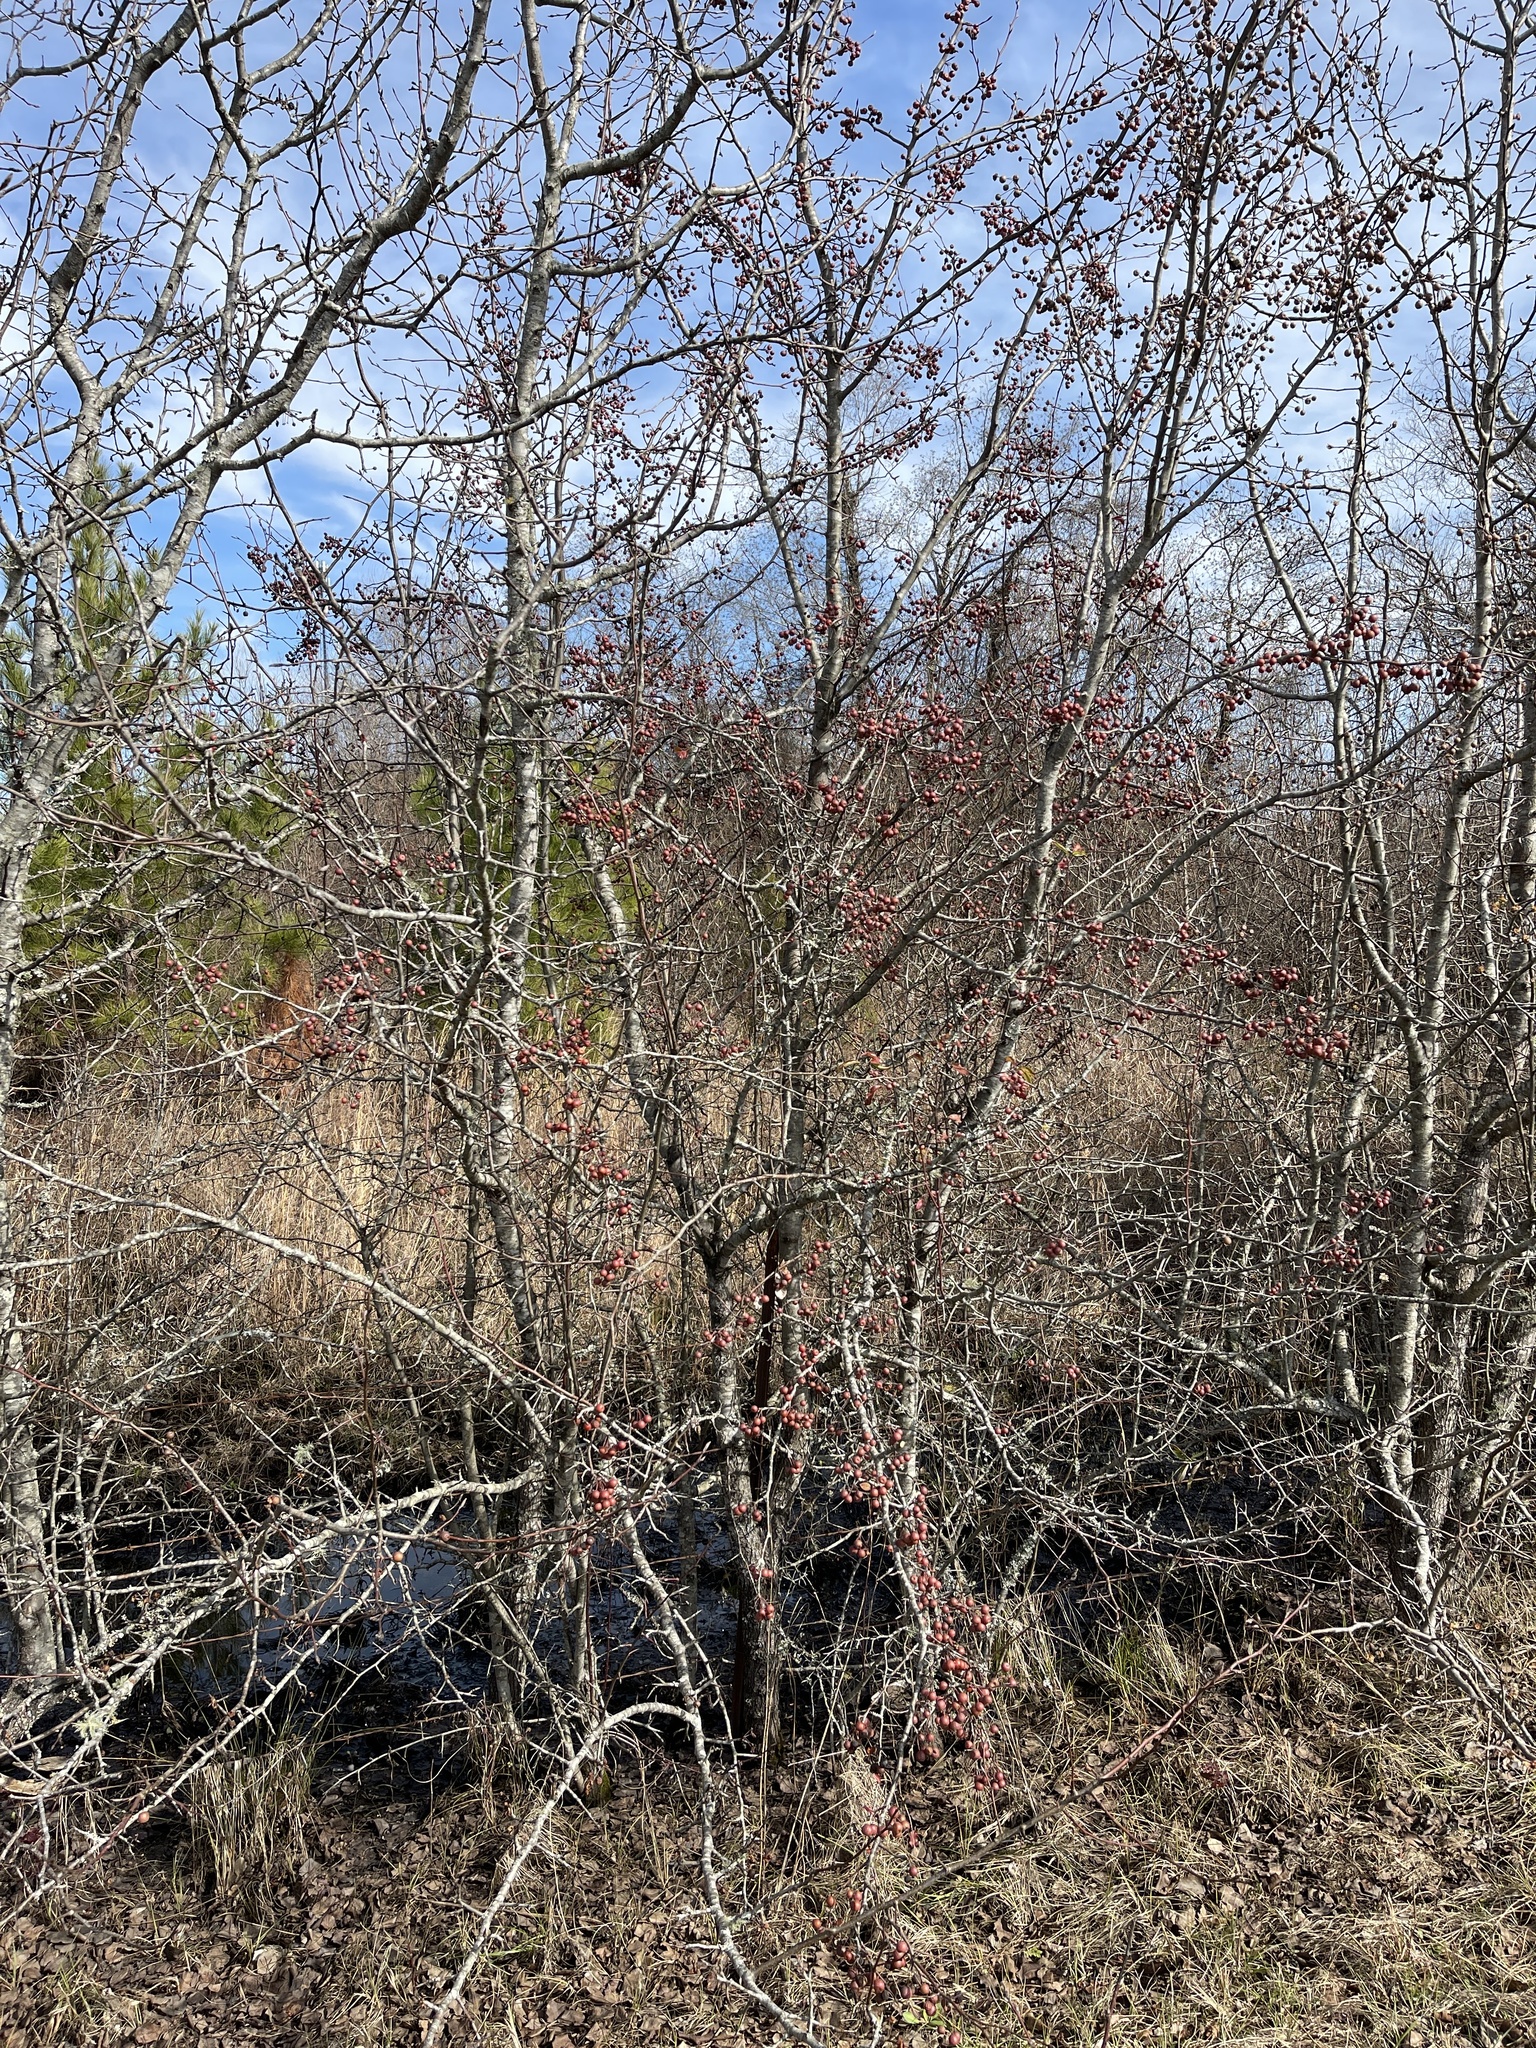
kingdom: Plantae
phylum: Tracheophyta
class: Magnoliopsida
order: Rosales
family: Rosaceae
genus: Pyrus
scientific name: Pyrus calleryana
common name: Callery pear
